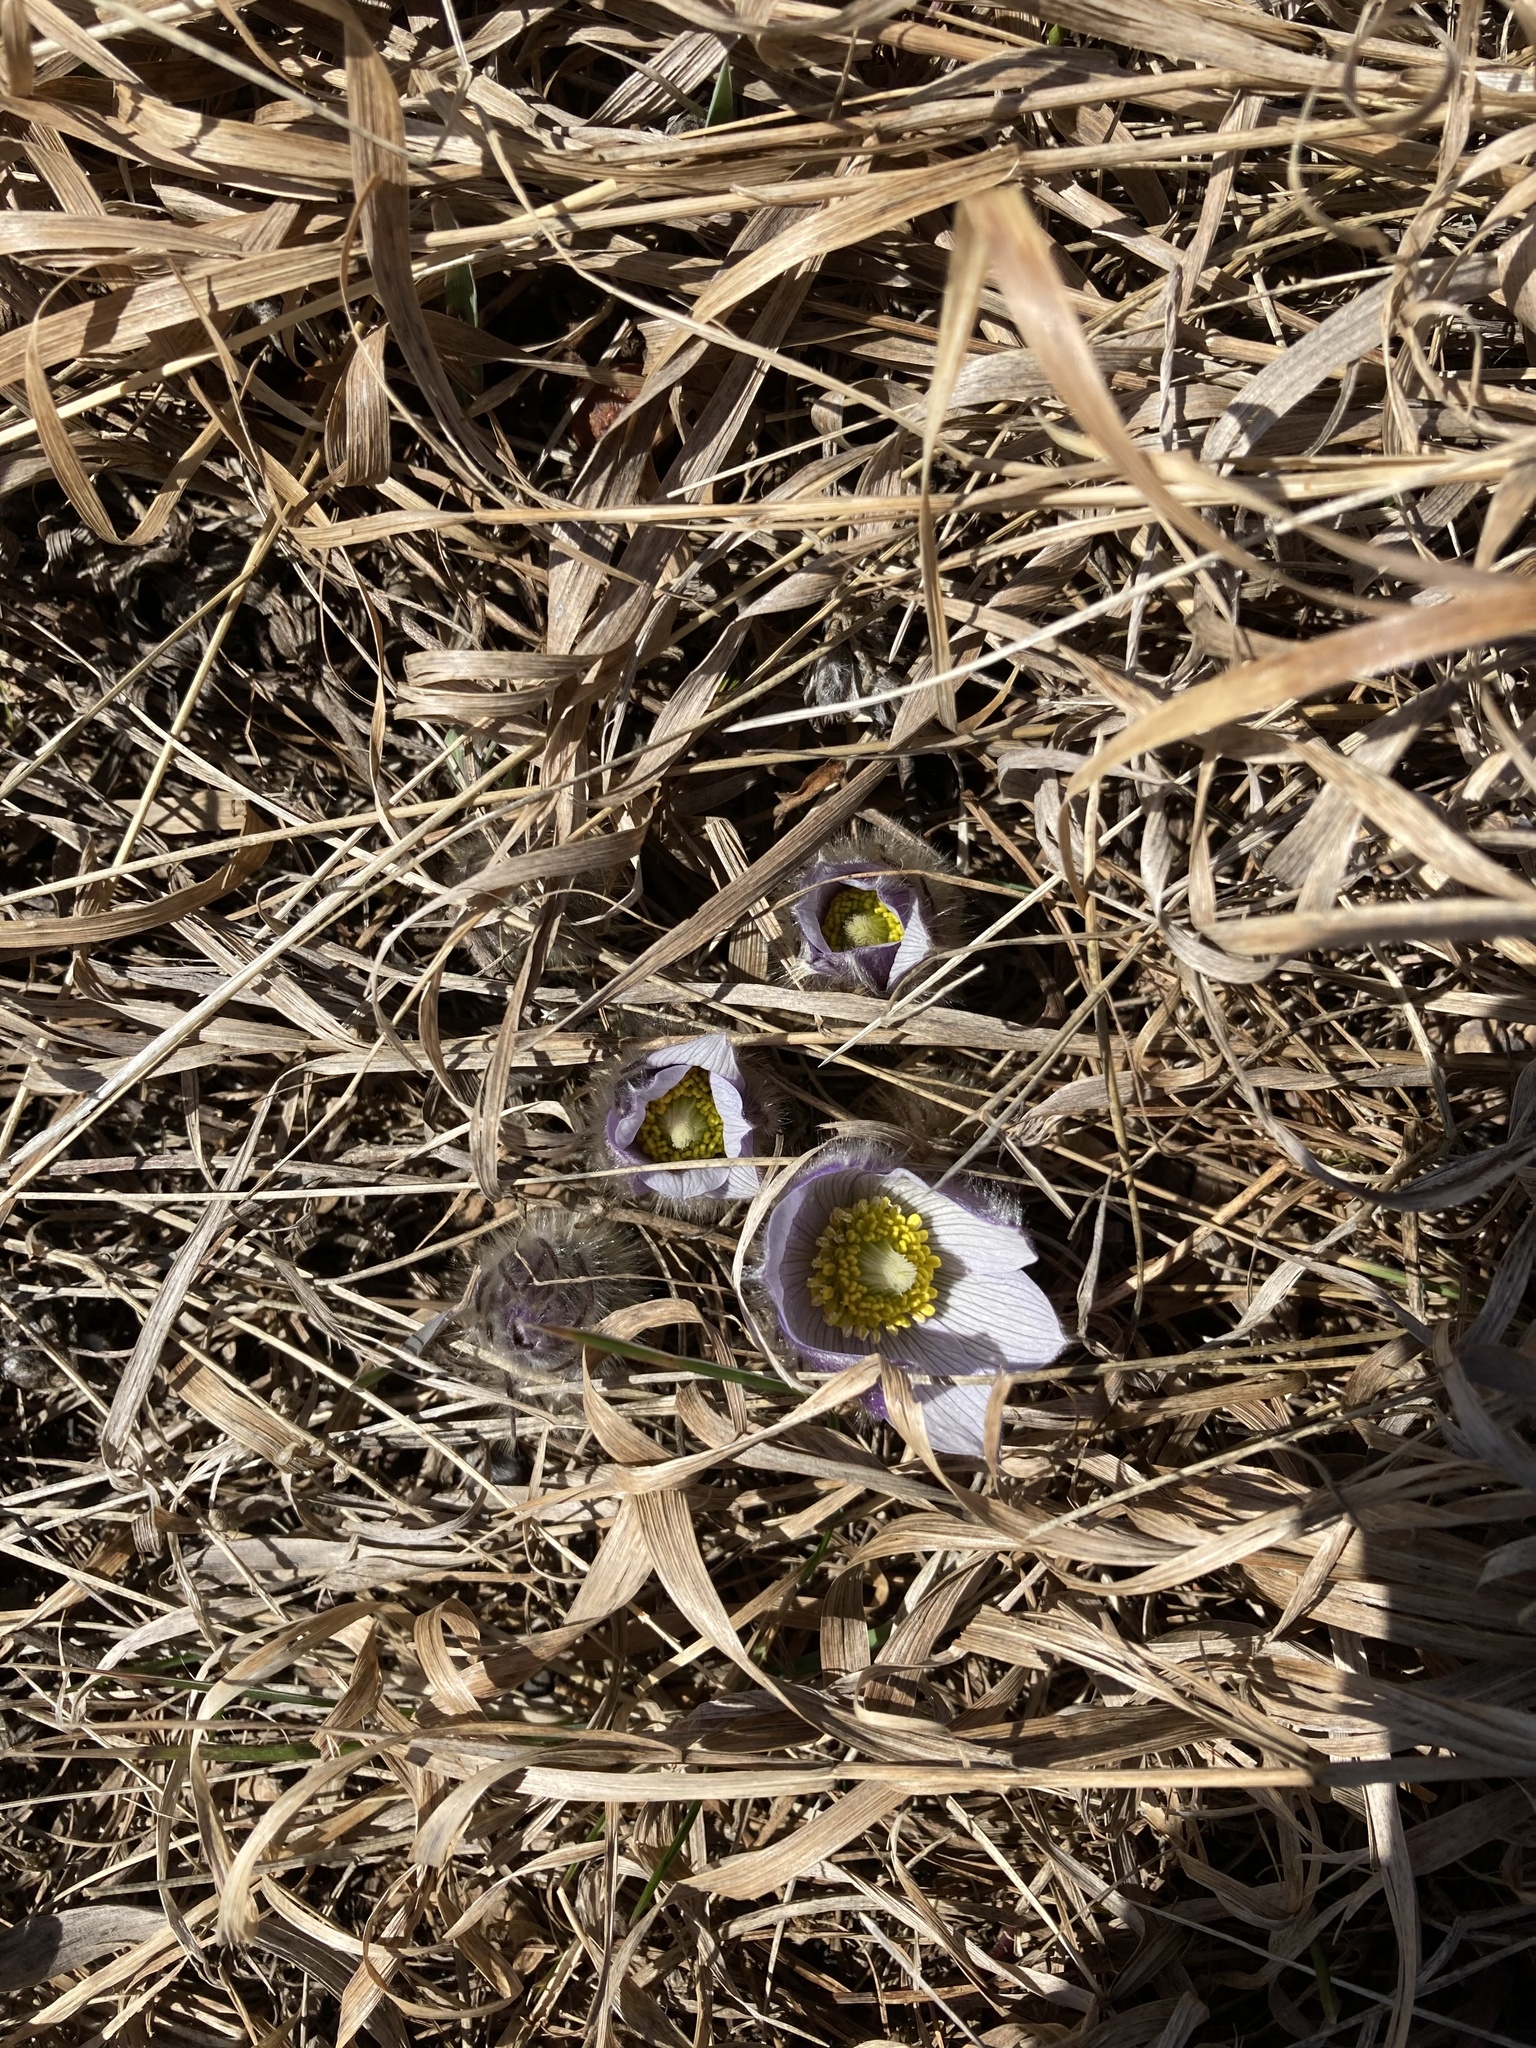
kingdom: Plantae
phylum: Tracheophyta
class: Magnoliopsida
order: Ranunculales
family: Ranunculaceae
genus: Pulsatilla
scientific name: Pulsatilla nuttalliana
